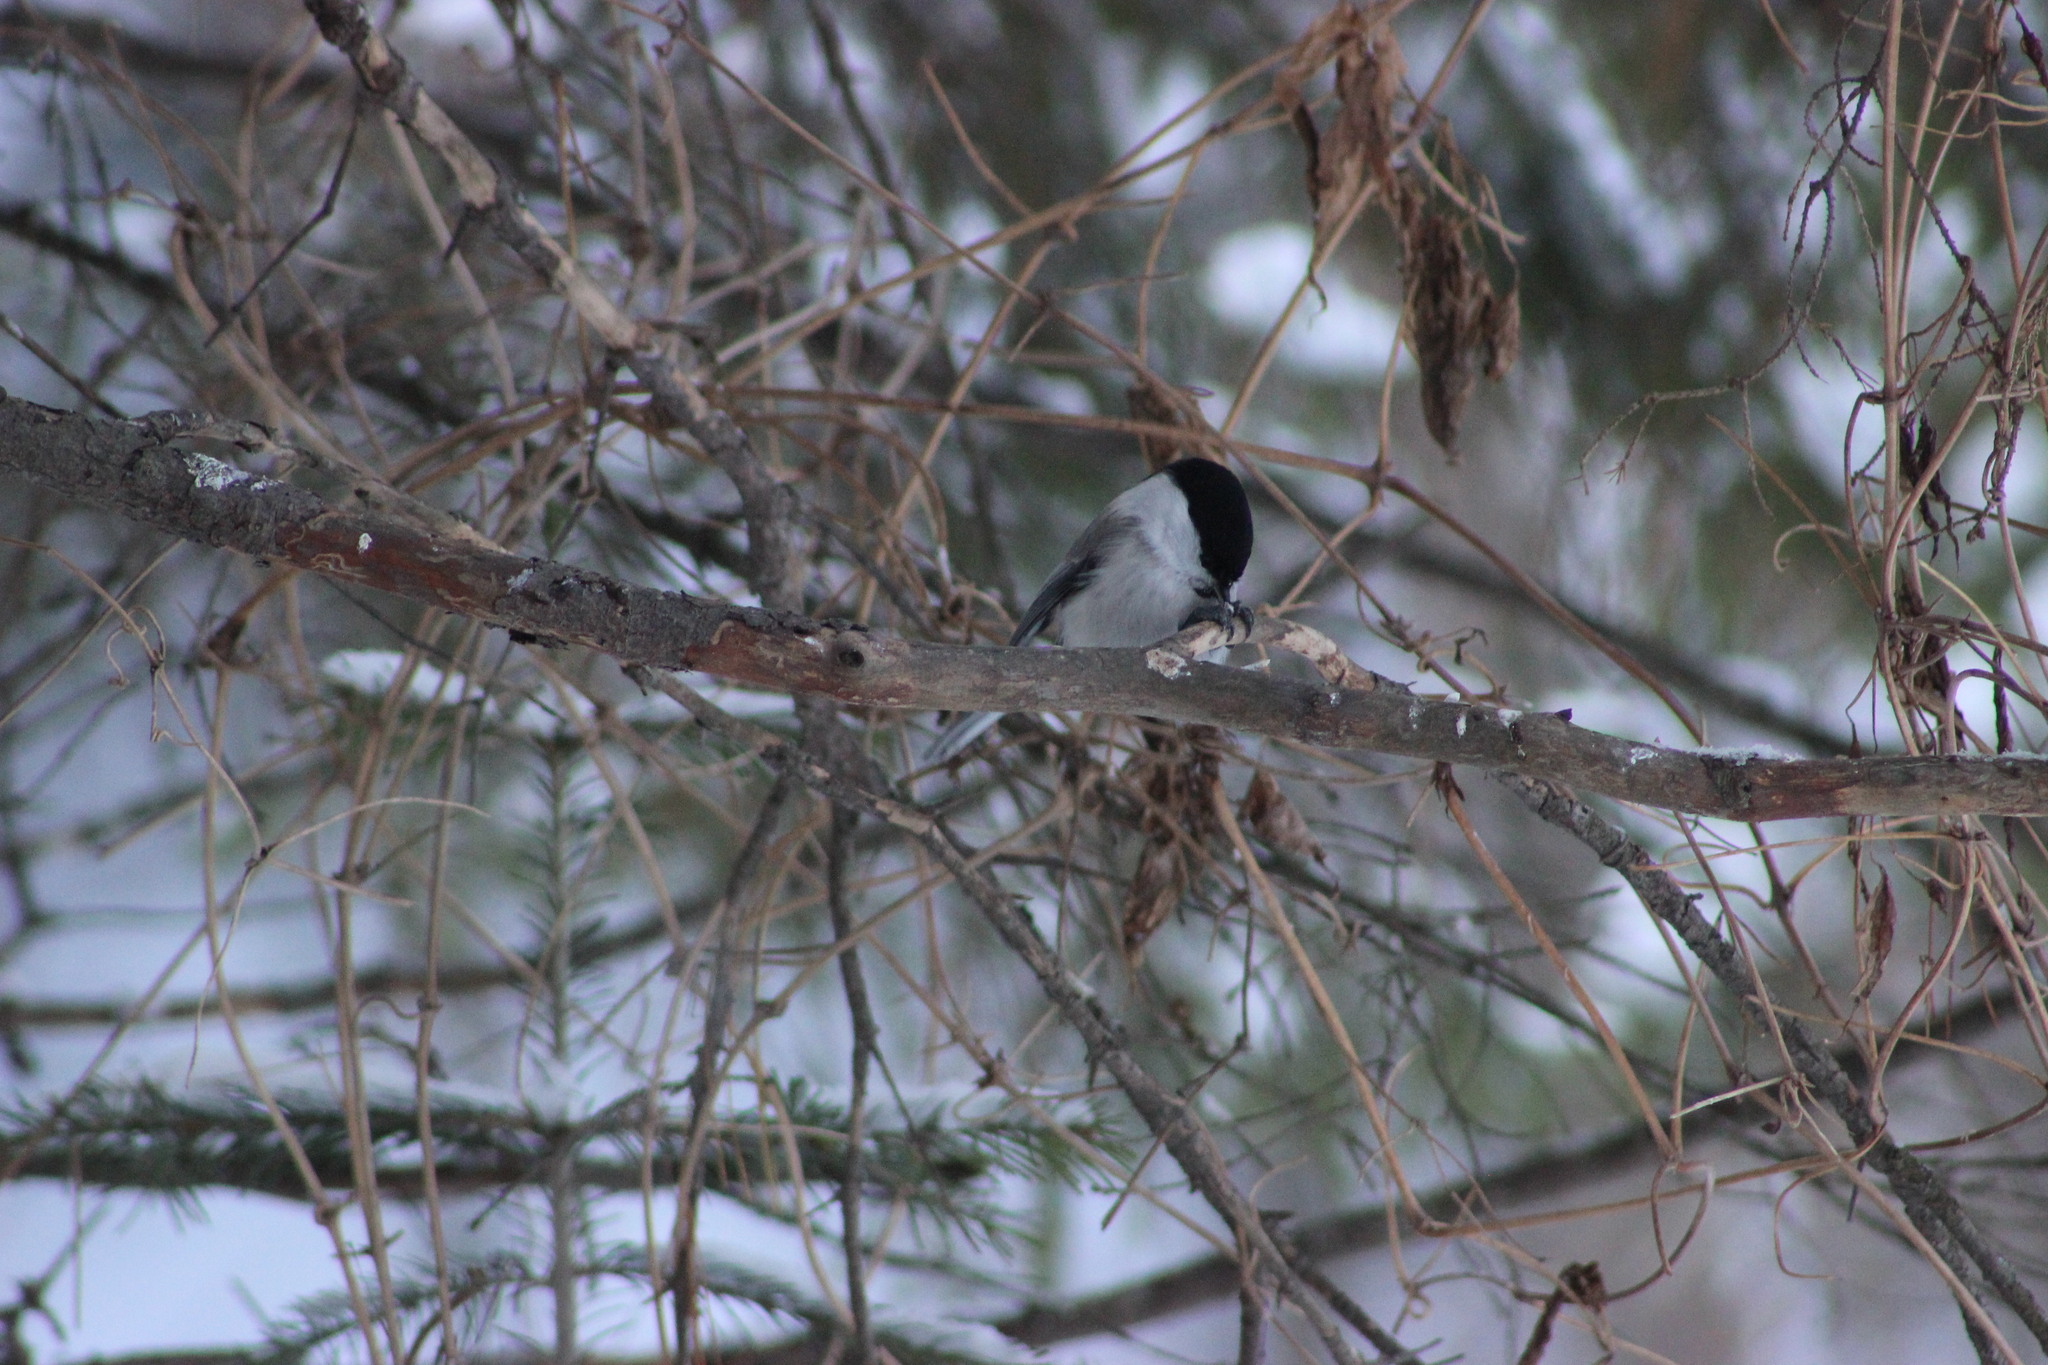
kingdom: Animalia
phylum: Chordata
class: Aves
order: Passeriformes
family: Paridae
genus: Poecile
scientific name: Poecile montanus
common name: Willow tit
